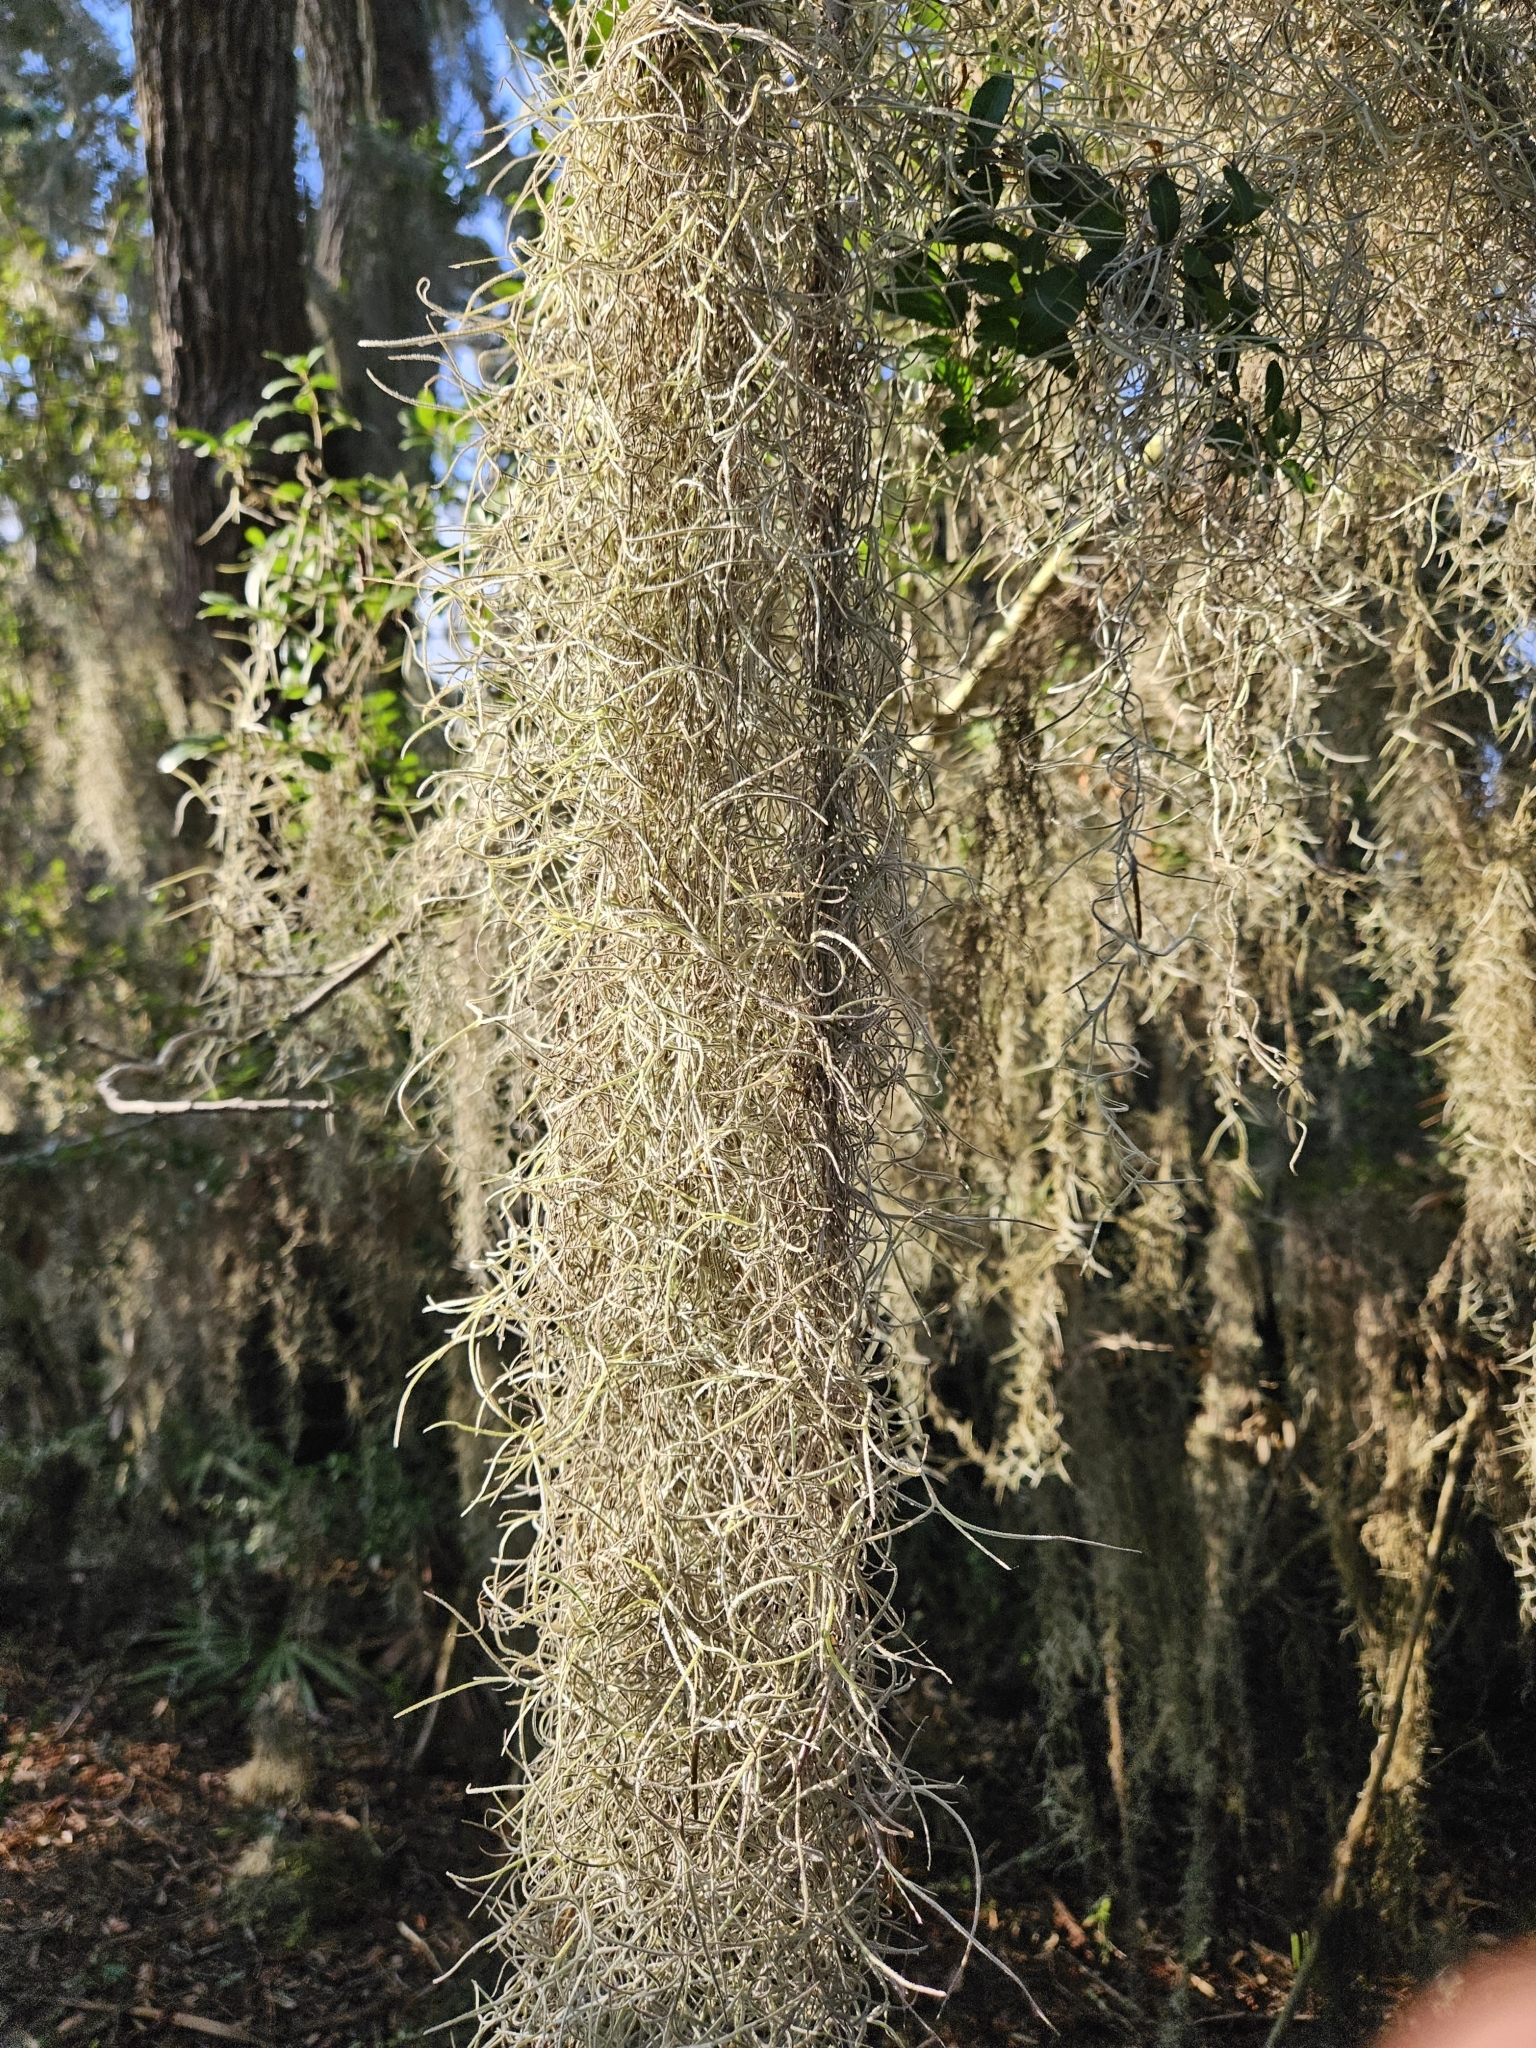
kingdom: Plantae
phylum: Tracheophyta
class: Liliopsida
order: Poales
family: Bromeliaceae
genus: Tillandsia
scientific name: Tillandsia usneoides
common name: Spanish moss
